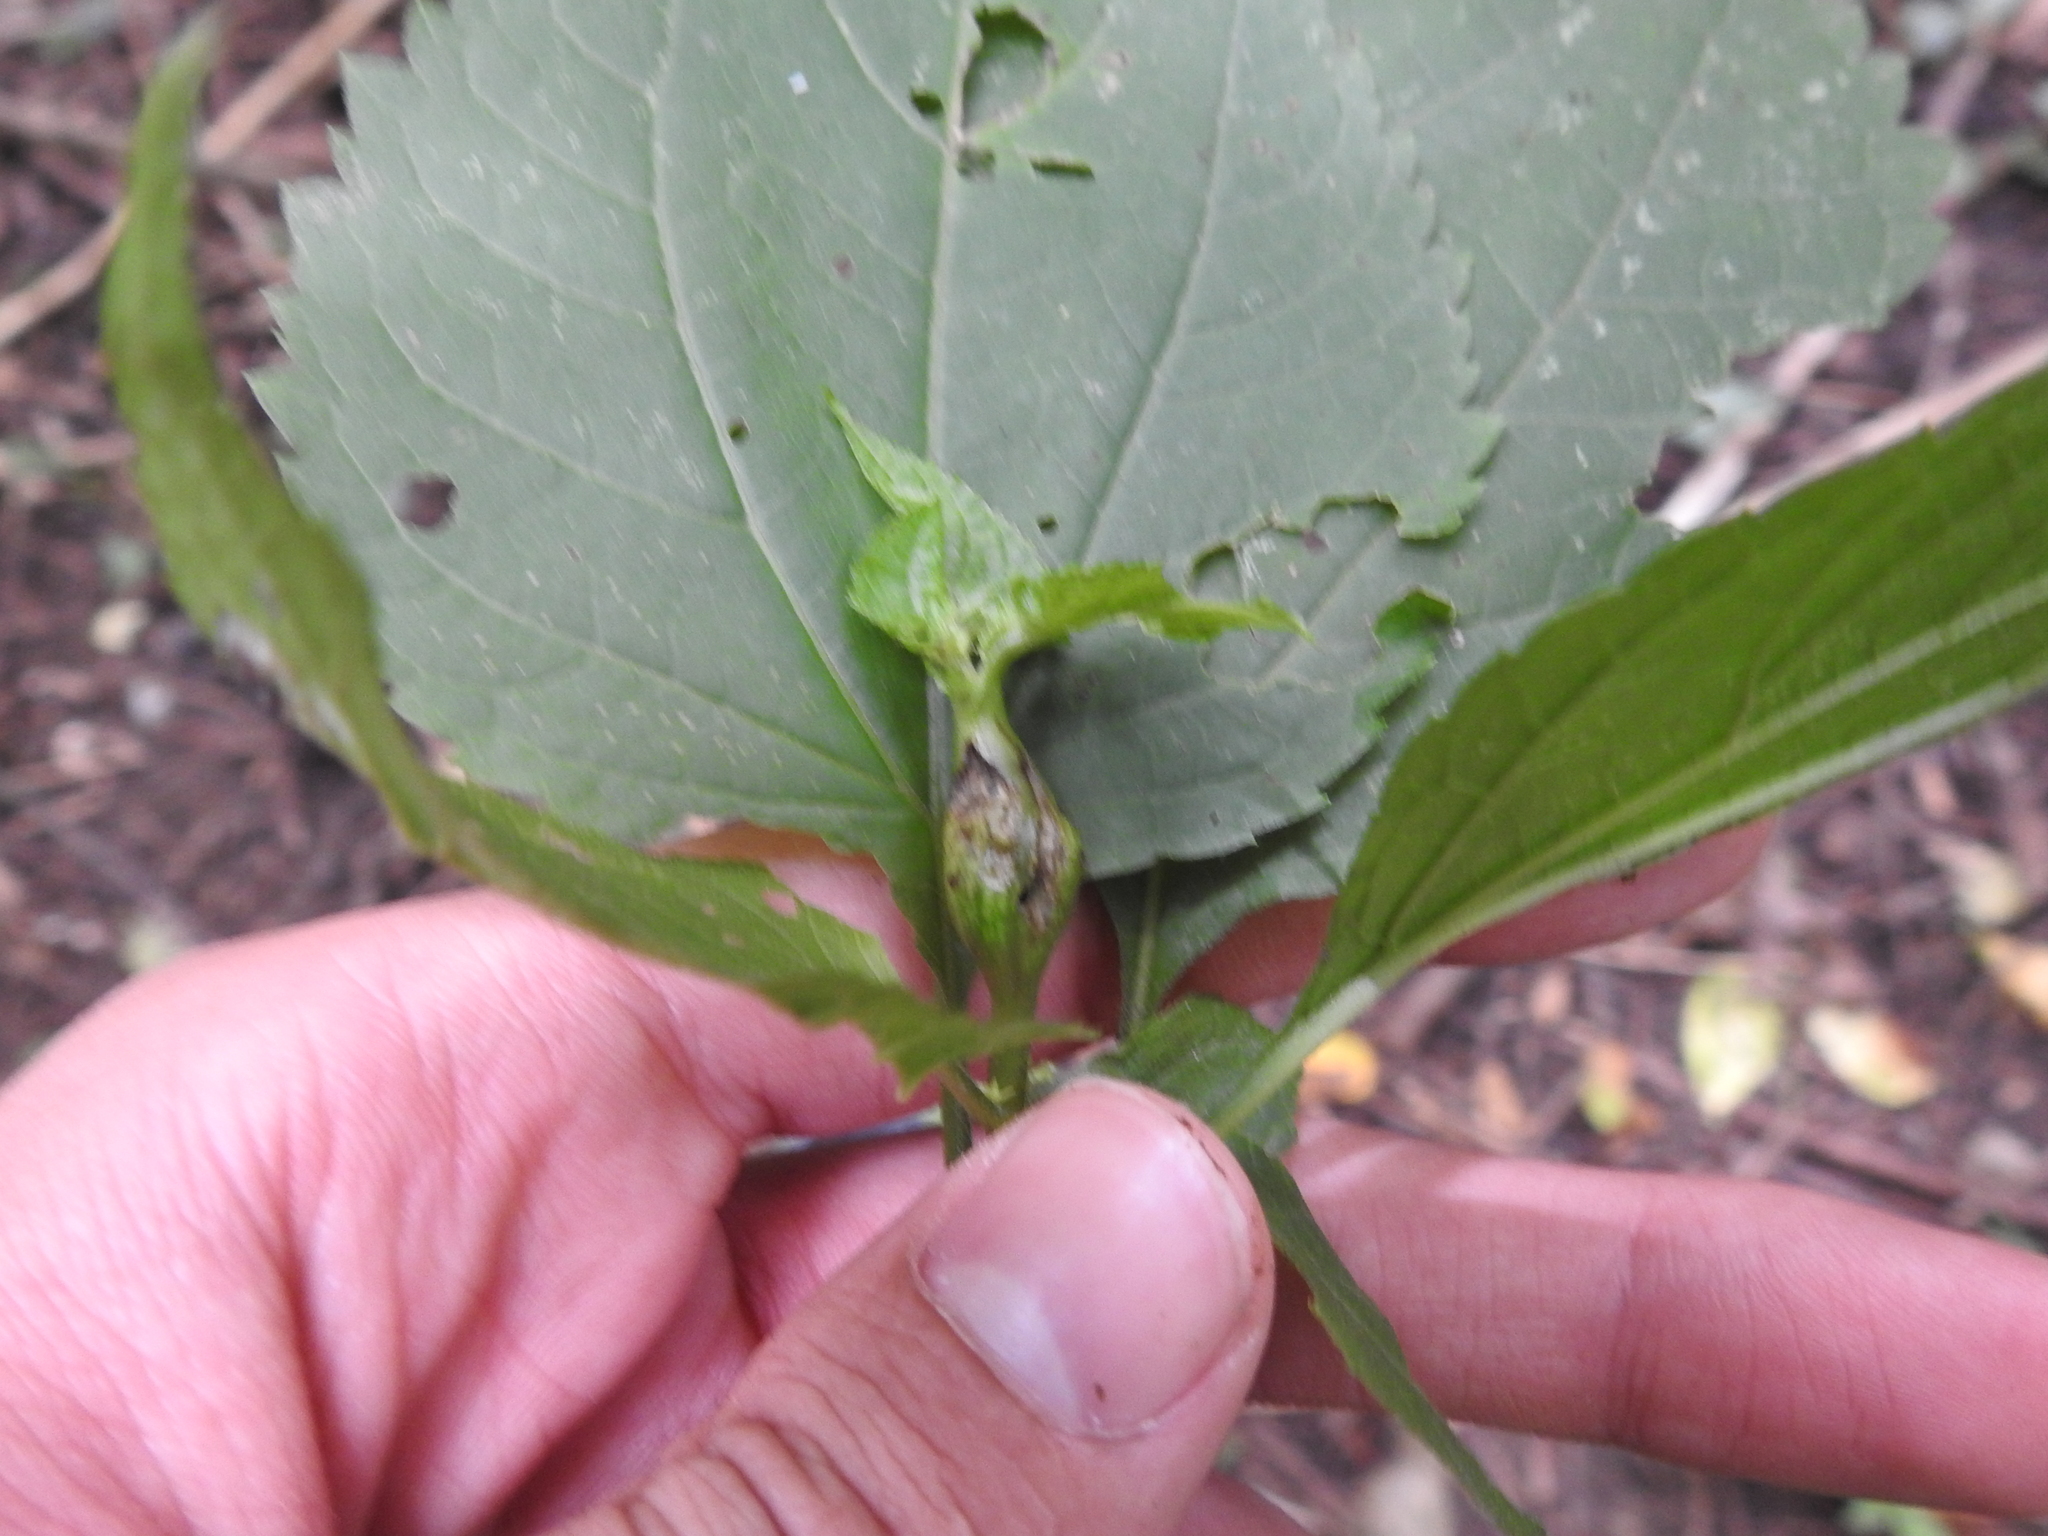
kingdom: Animalia
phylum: Arthropoda
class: Insecta
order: Diptera
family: Cecidomyiidae
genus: Asphondylia
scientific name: Asphondylia eupatorii
